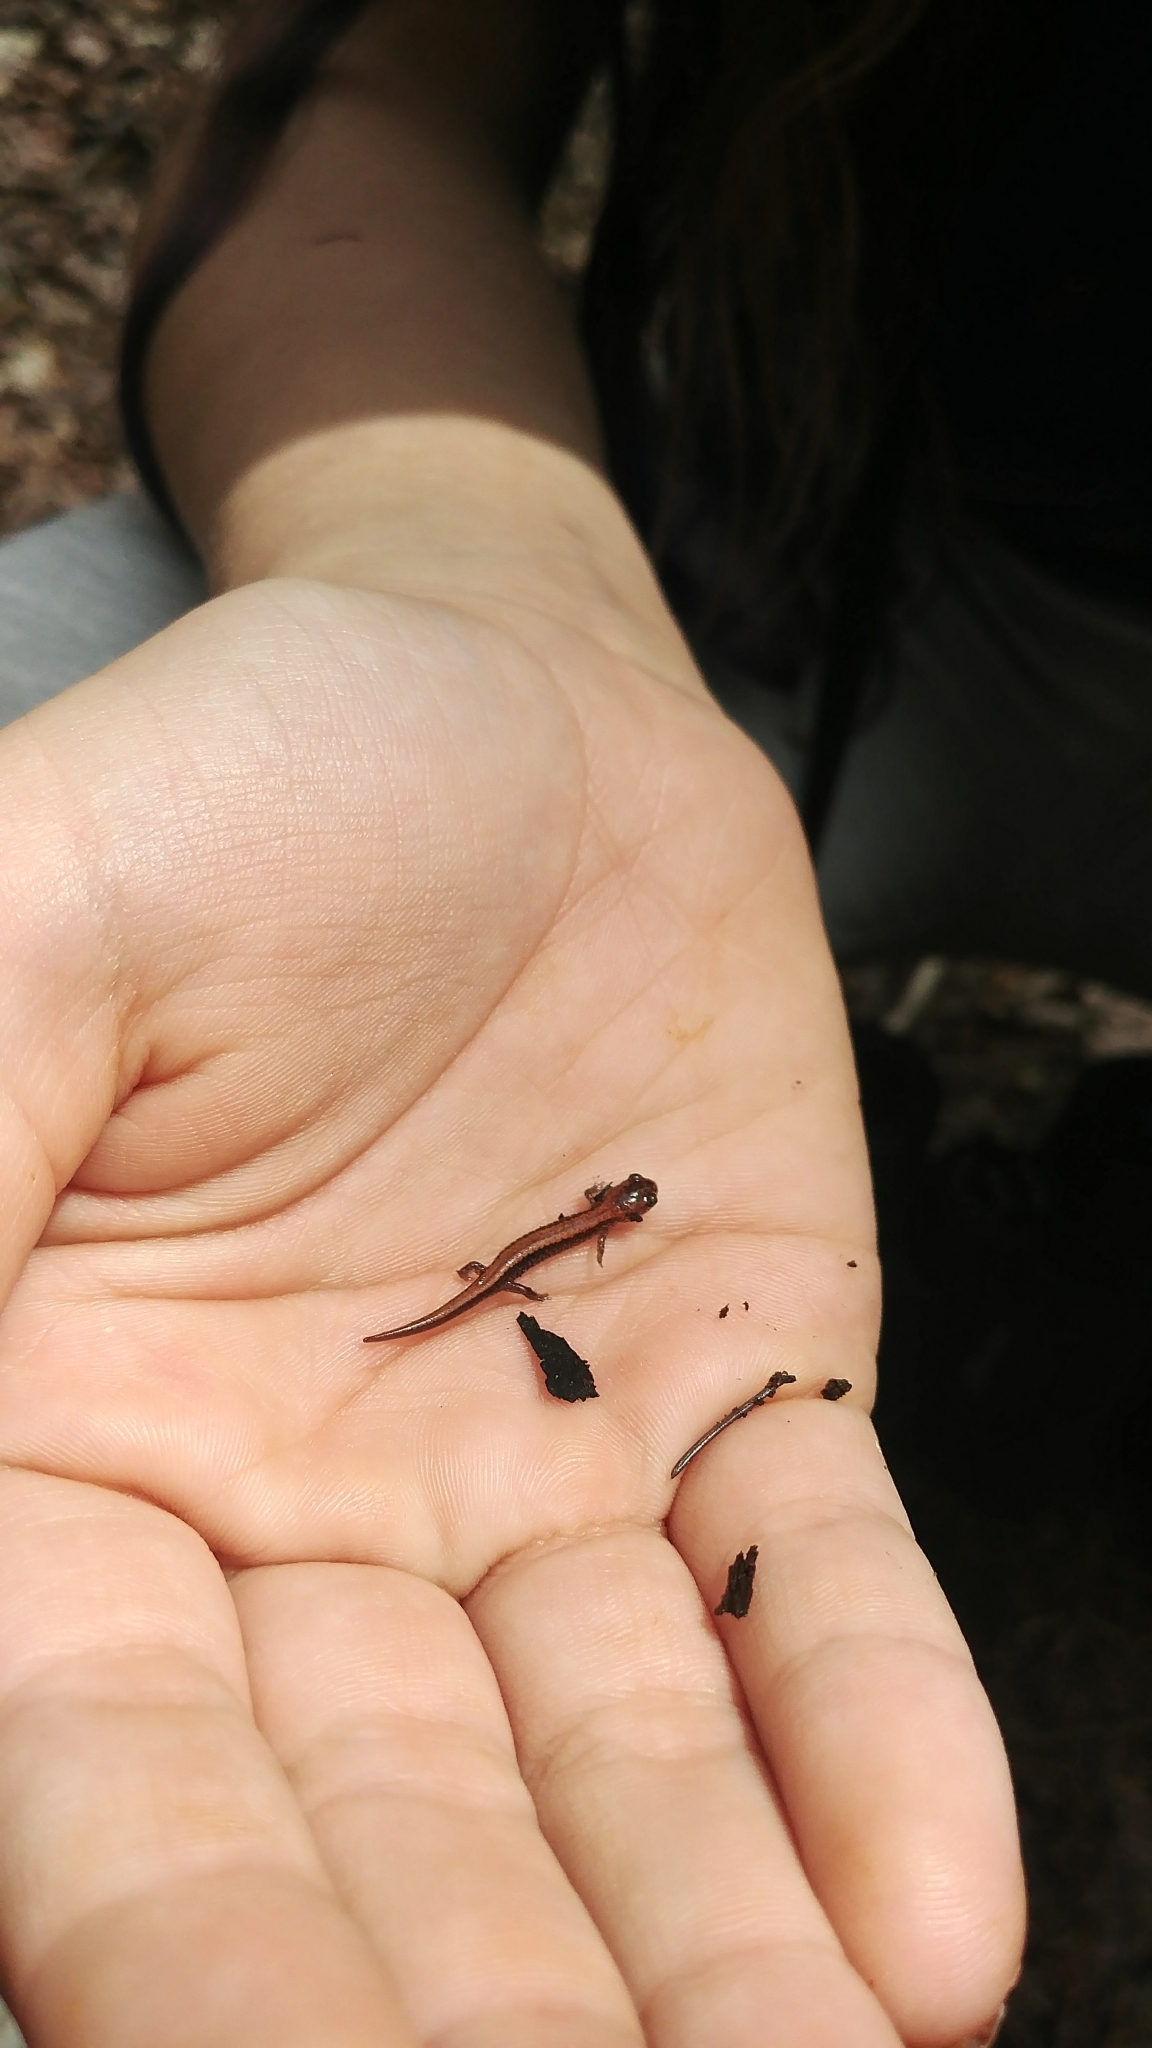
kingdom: Animalia
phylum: Chordata
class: Amphibia
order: Caudata
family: Plethodontidae
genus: Plethodon
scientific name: Plethodon cinereus
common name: Redback salamander
